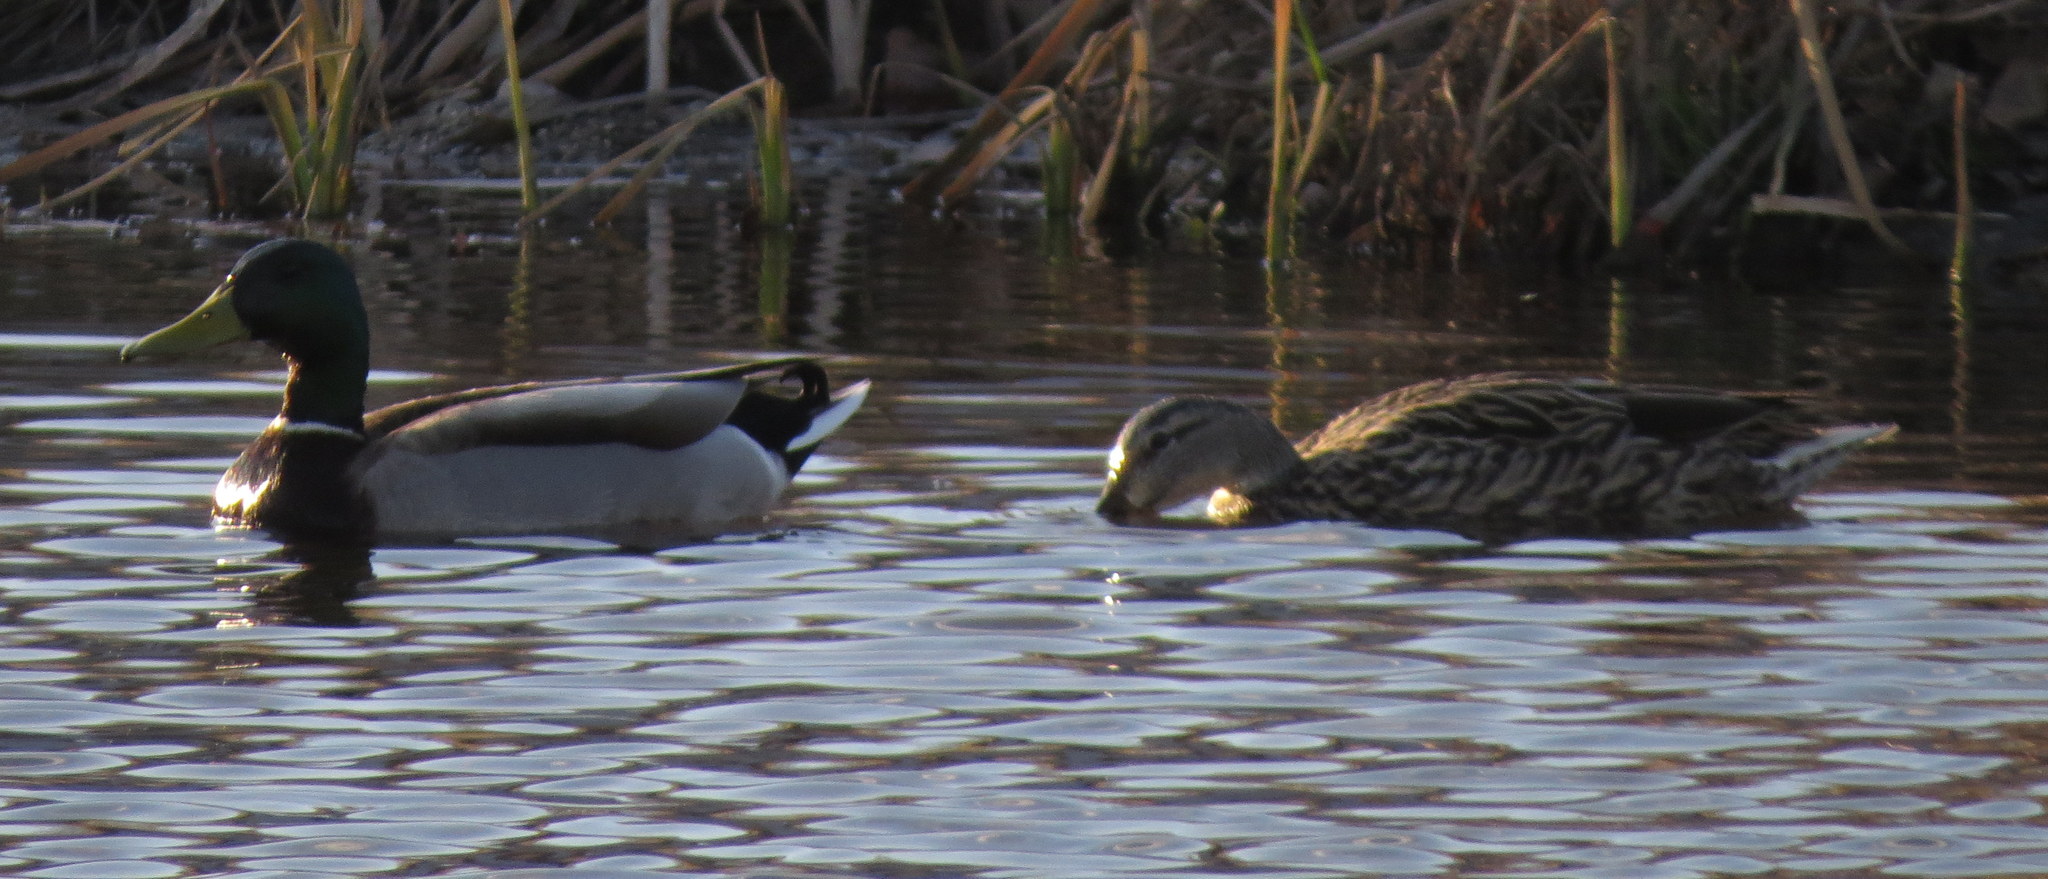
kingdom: Animalia
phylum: Chordata
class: Aves
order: Anseriformes
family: Anatidae
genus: Anas
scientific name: Anas platyrhynchos
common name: Mallard
